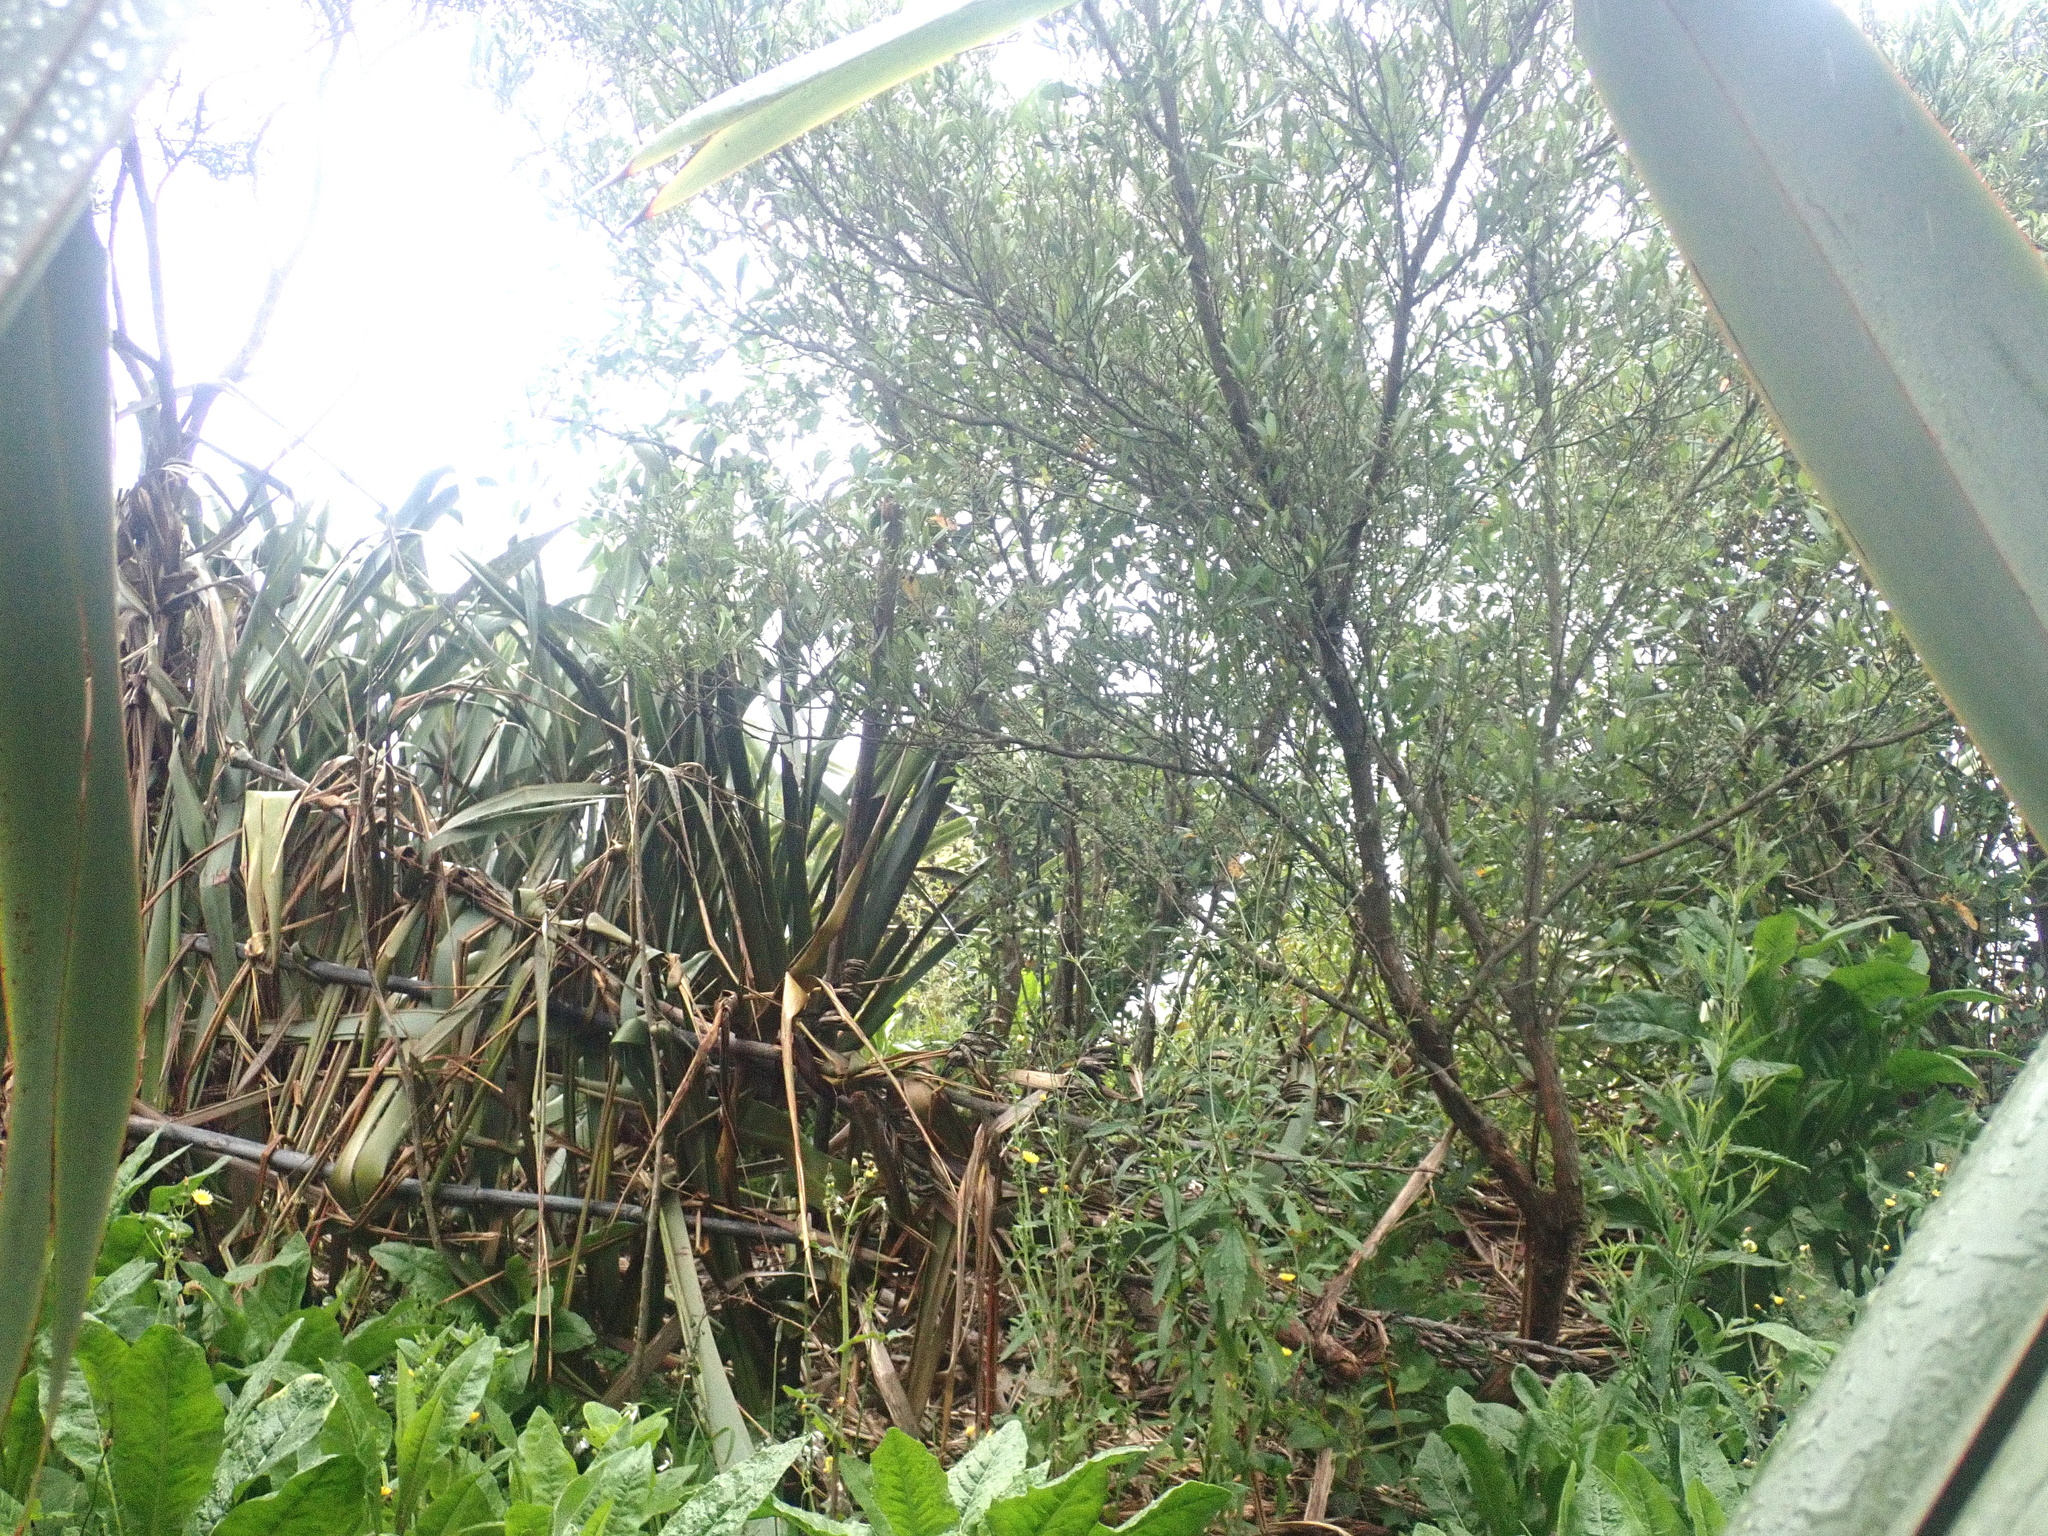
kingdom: Plantae
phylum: Tracheophyta
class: Magnoliopsida
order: Sapindales
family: Sapindaceae
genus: Dodonaea
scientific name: Dodonaea viscosa
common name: Hopbush
